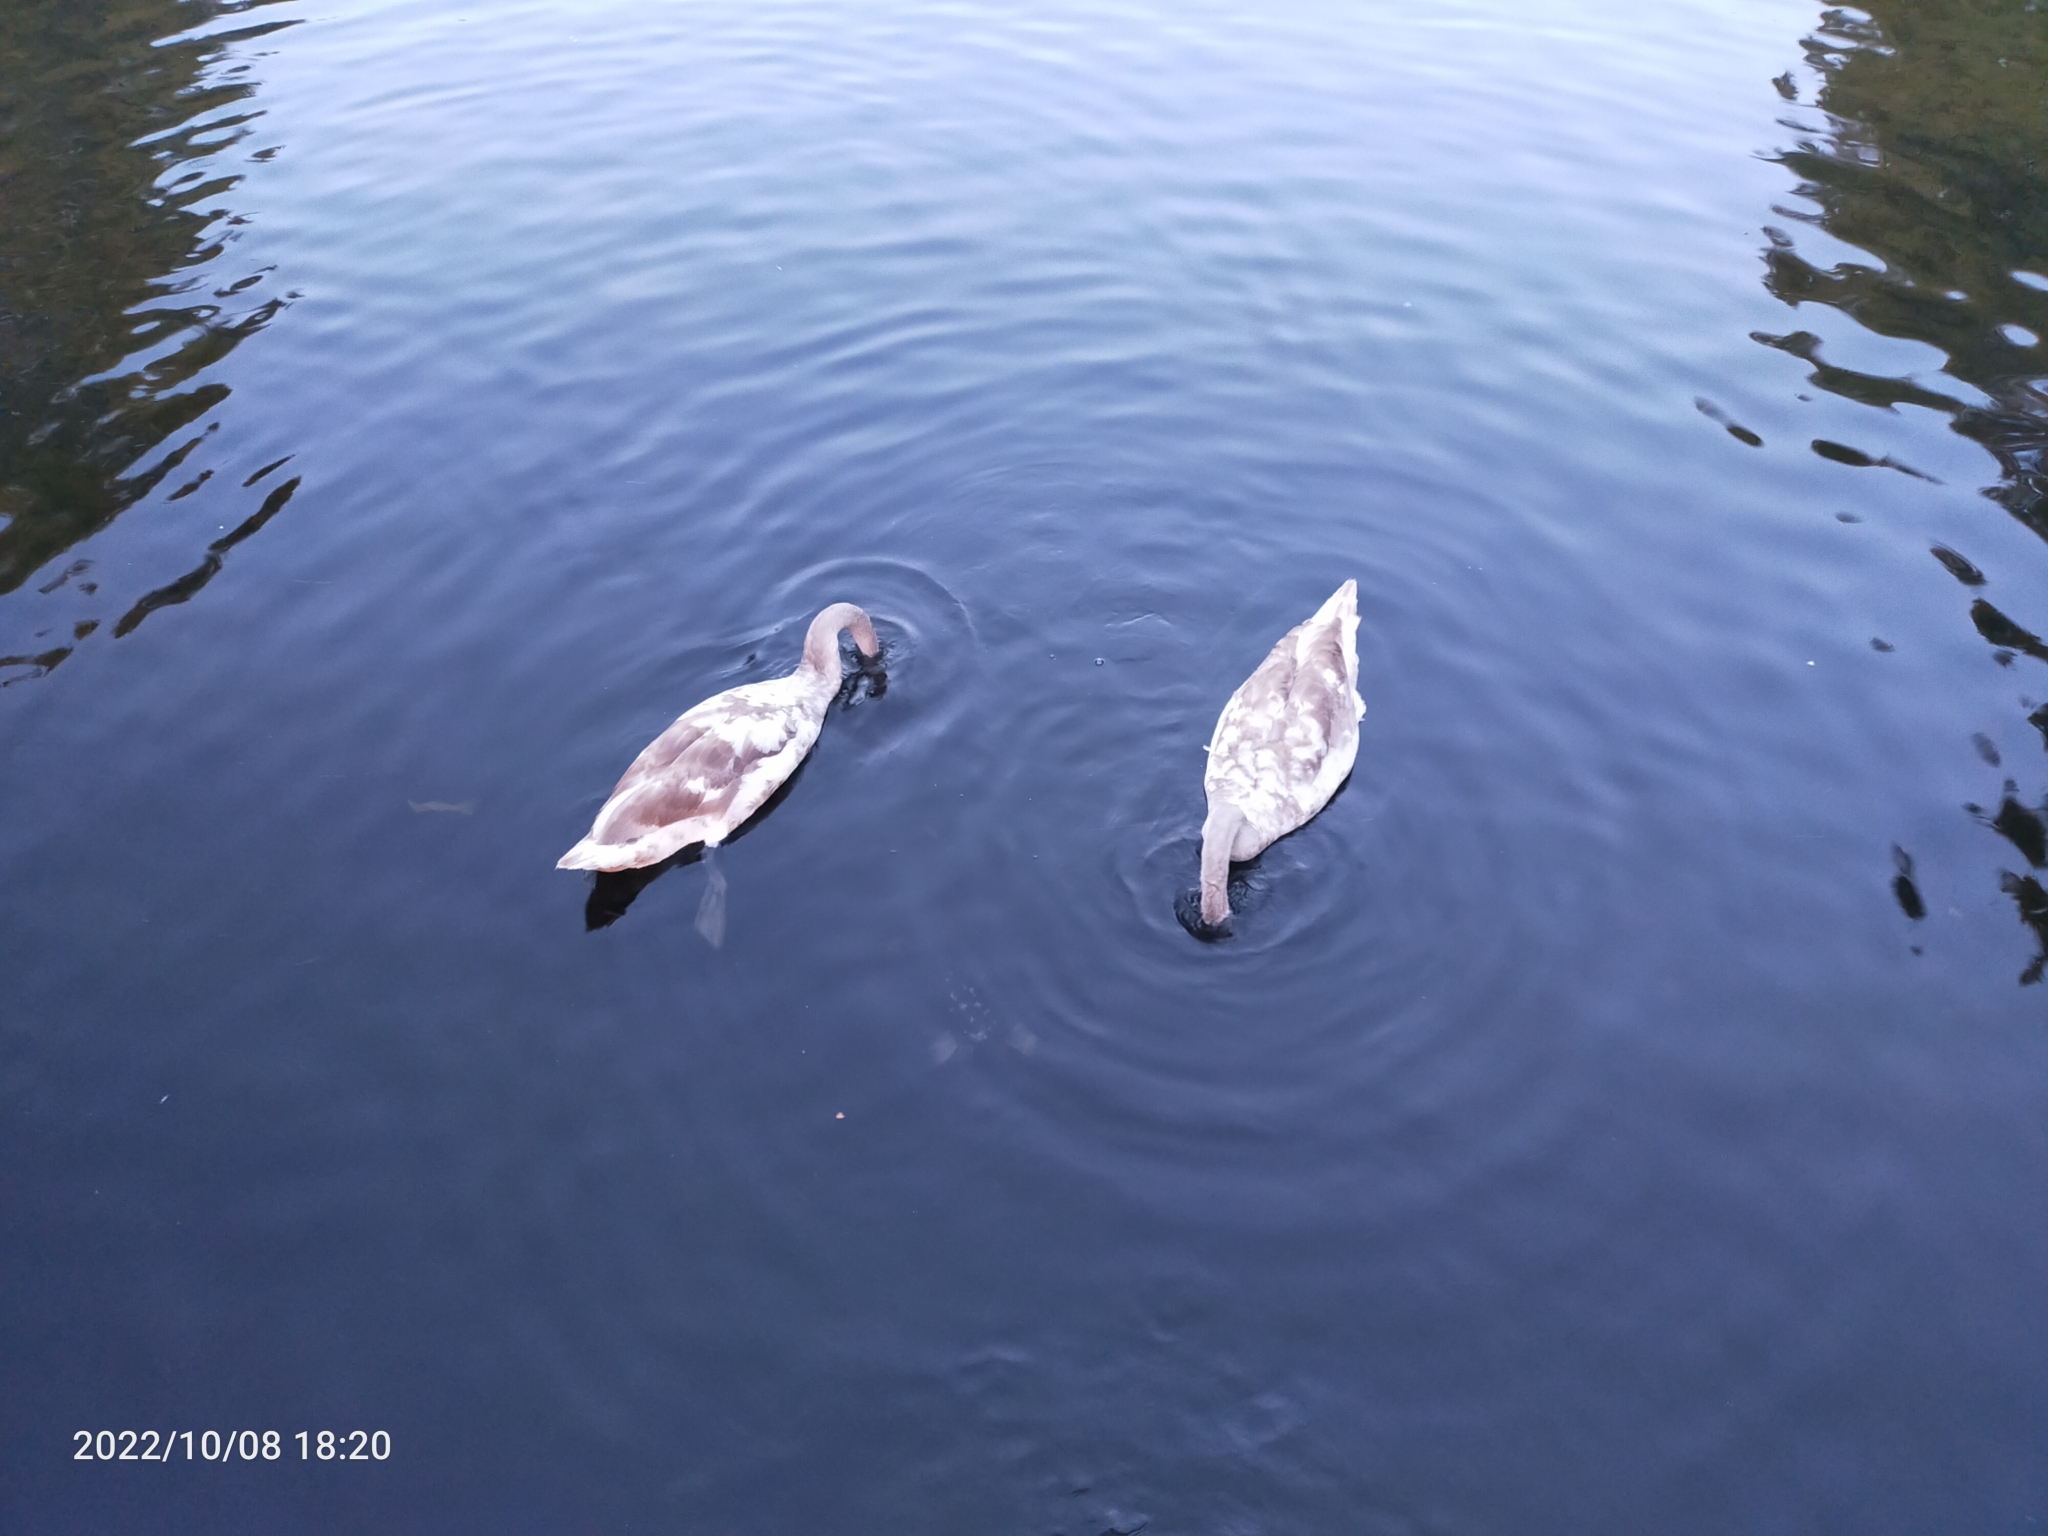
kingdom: Animalia
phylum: Chordata
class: Aves
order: Anseriformes
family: Anatidae
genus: Cygnus
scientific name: Cygnus olor
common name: Mute swan
